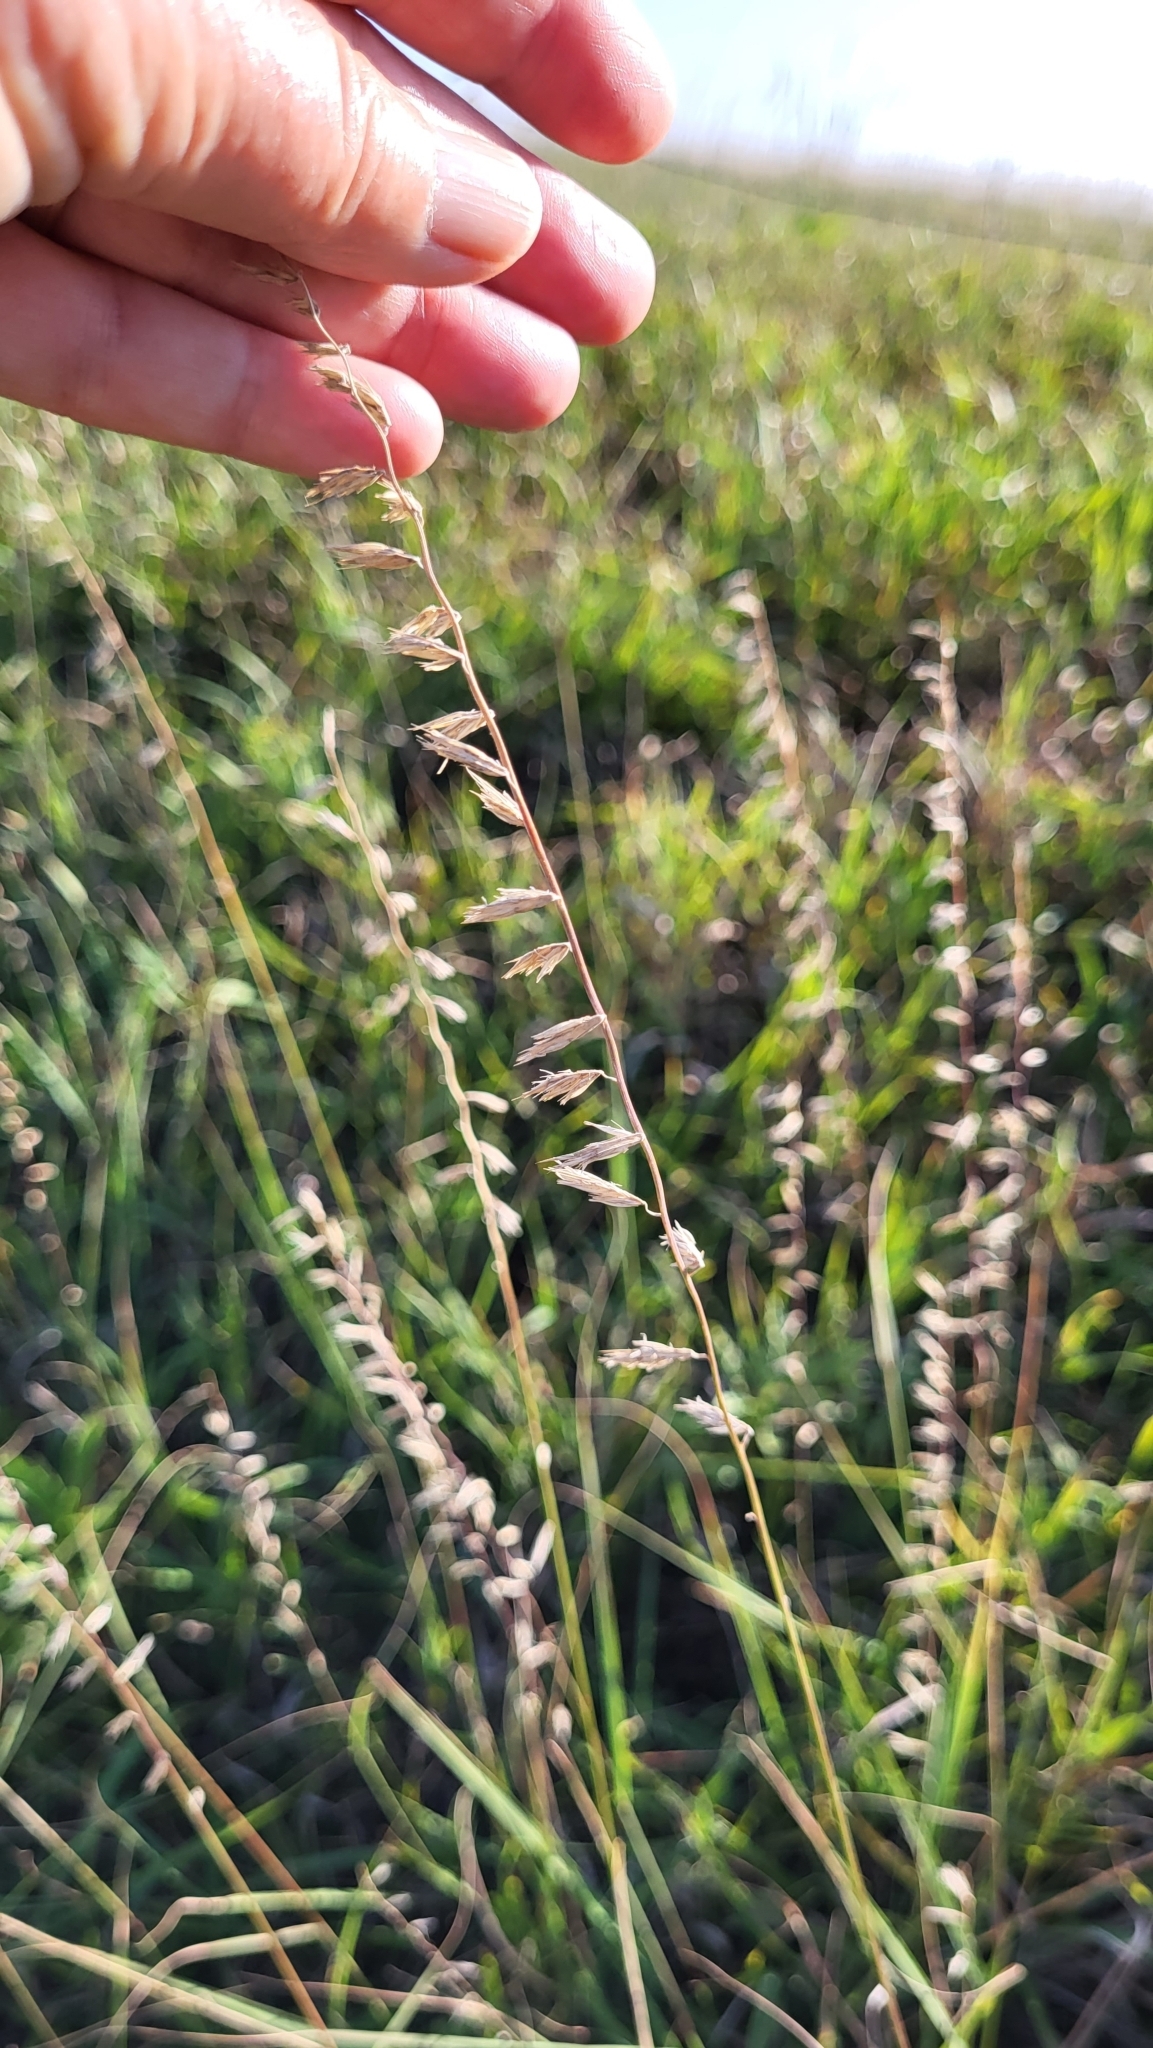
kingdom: Plantae
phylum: Tracheophyta
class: Liliopsida
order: Poales
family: Poaceae
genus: Bouteloua
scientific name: Bouteloua curtipendula
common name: Side-oats grama
